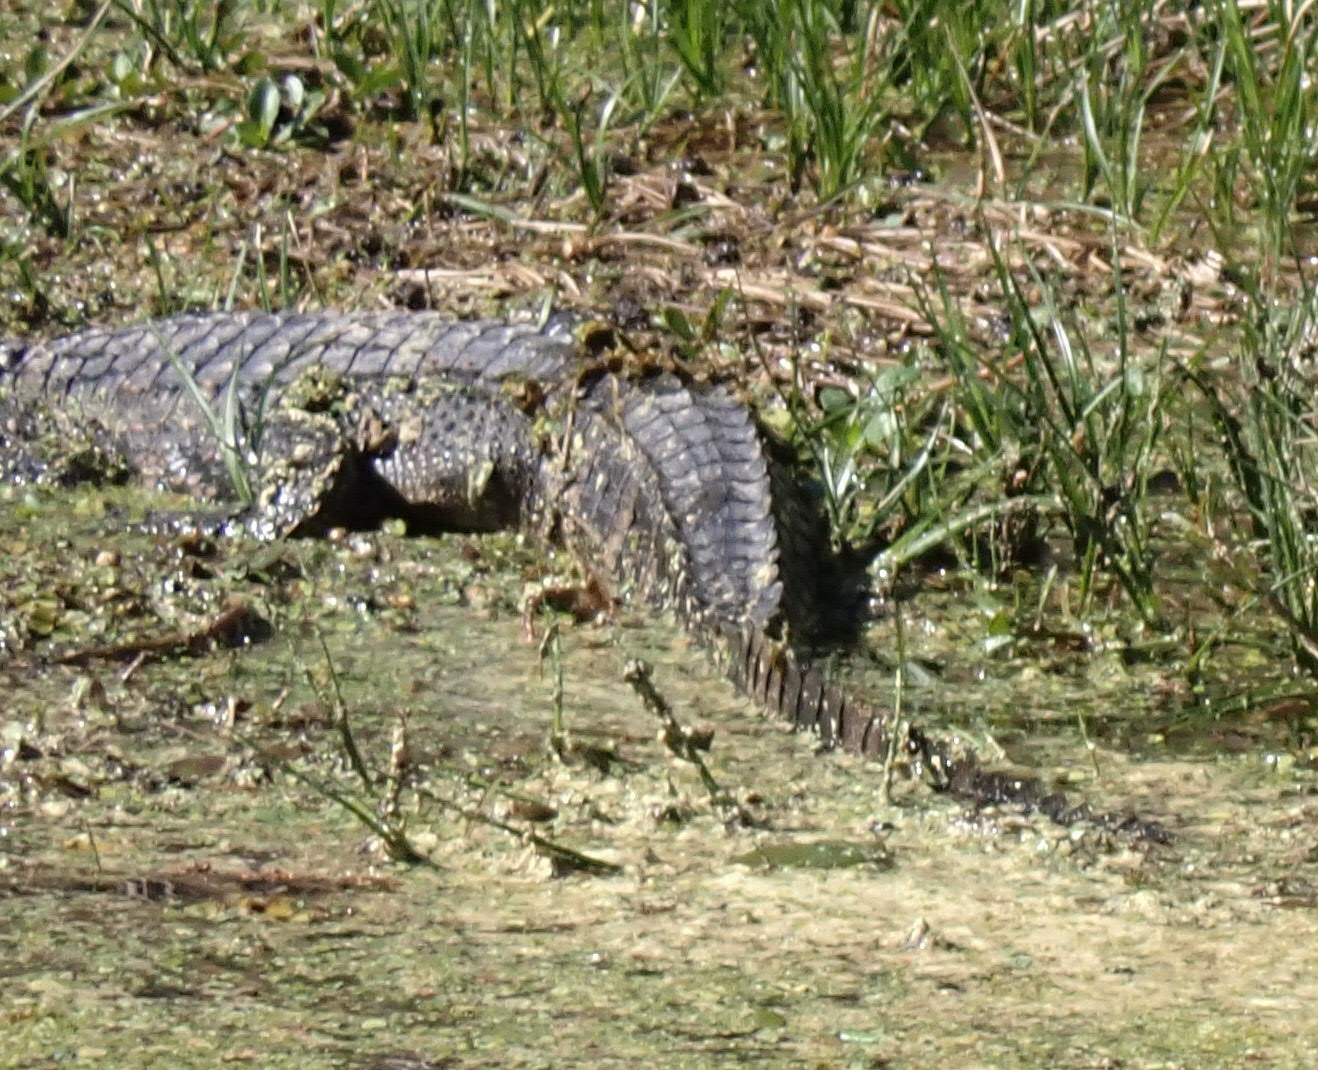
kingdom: Animalia
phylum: Chordata
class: Crocodylia
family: Alligatoridae
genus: Alligator
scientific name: Alligator mississippiensis
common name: American alligator
